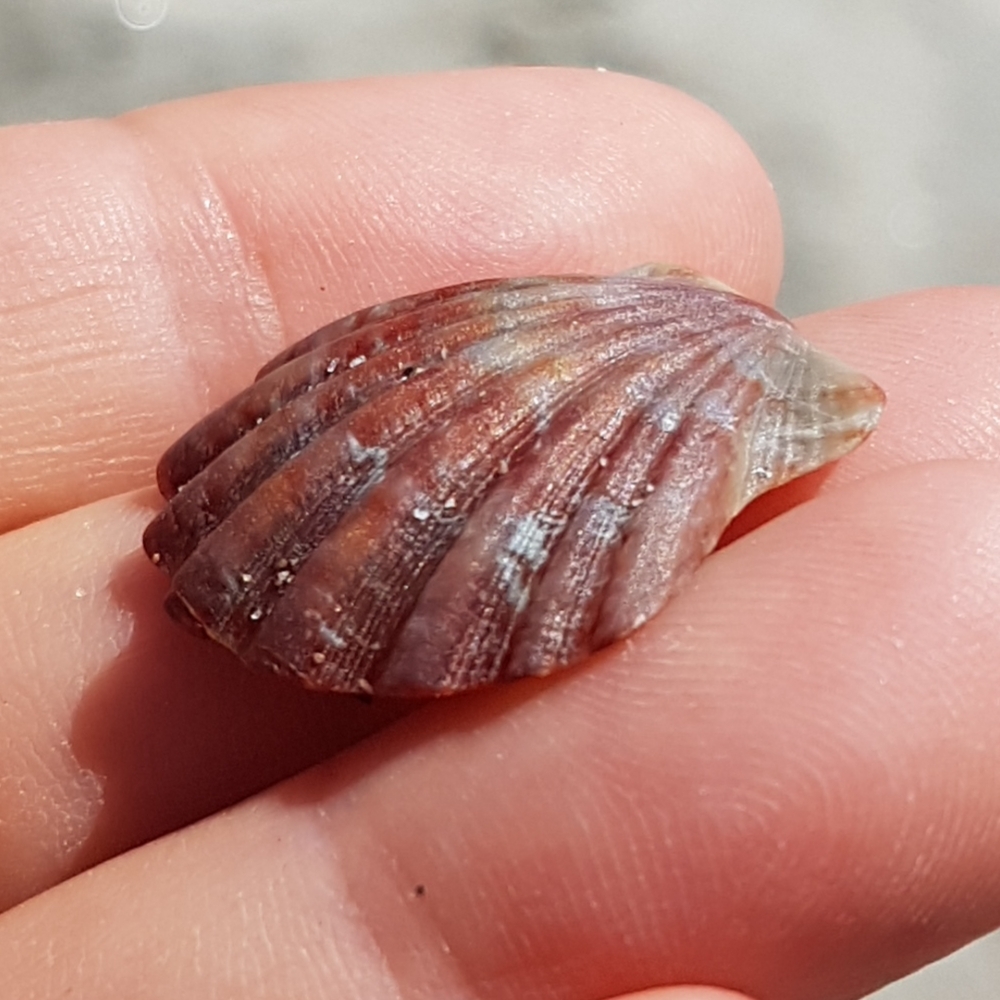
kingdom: Animalia
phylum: Mollusca
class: Bivalvia
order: Pectinida
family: Pectinidae
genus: Flexopecten
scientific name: Flexopecten glaber
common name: Smooth scallop
